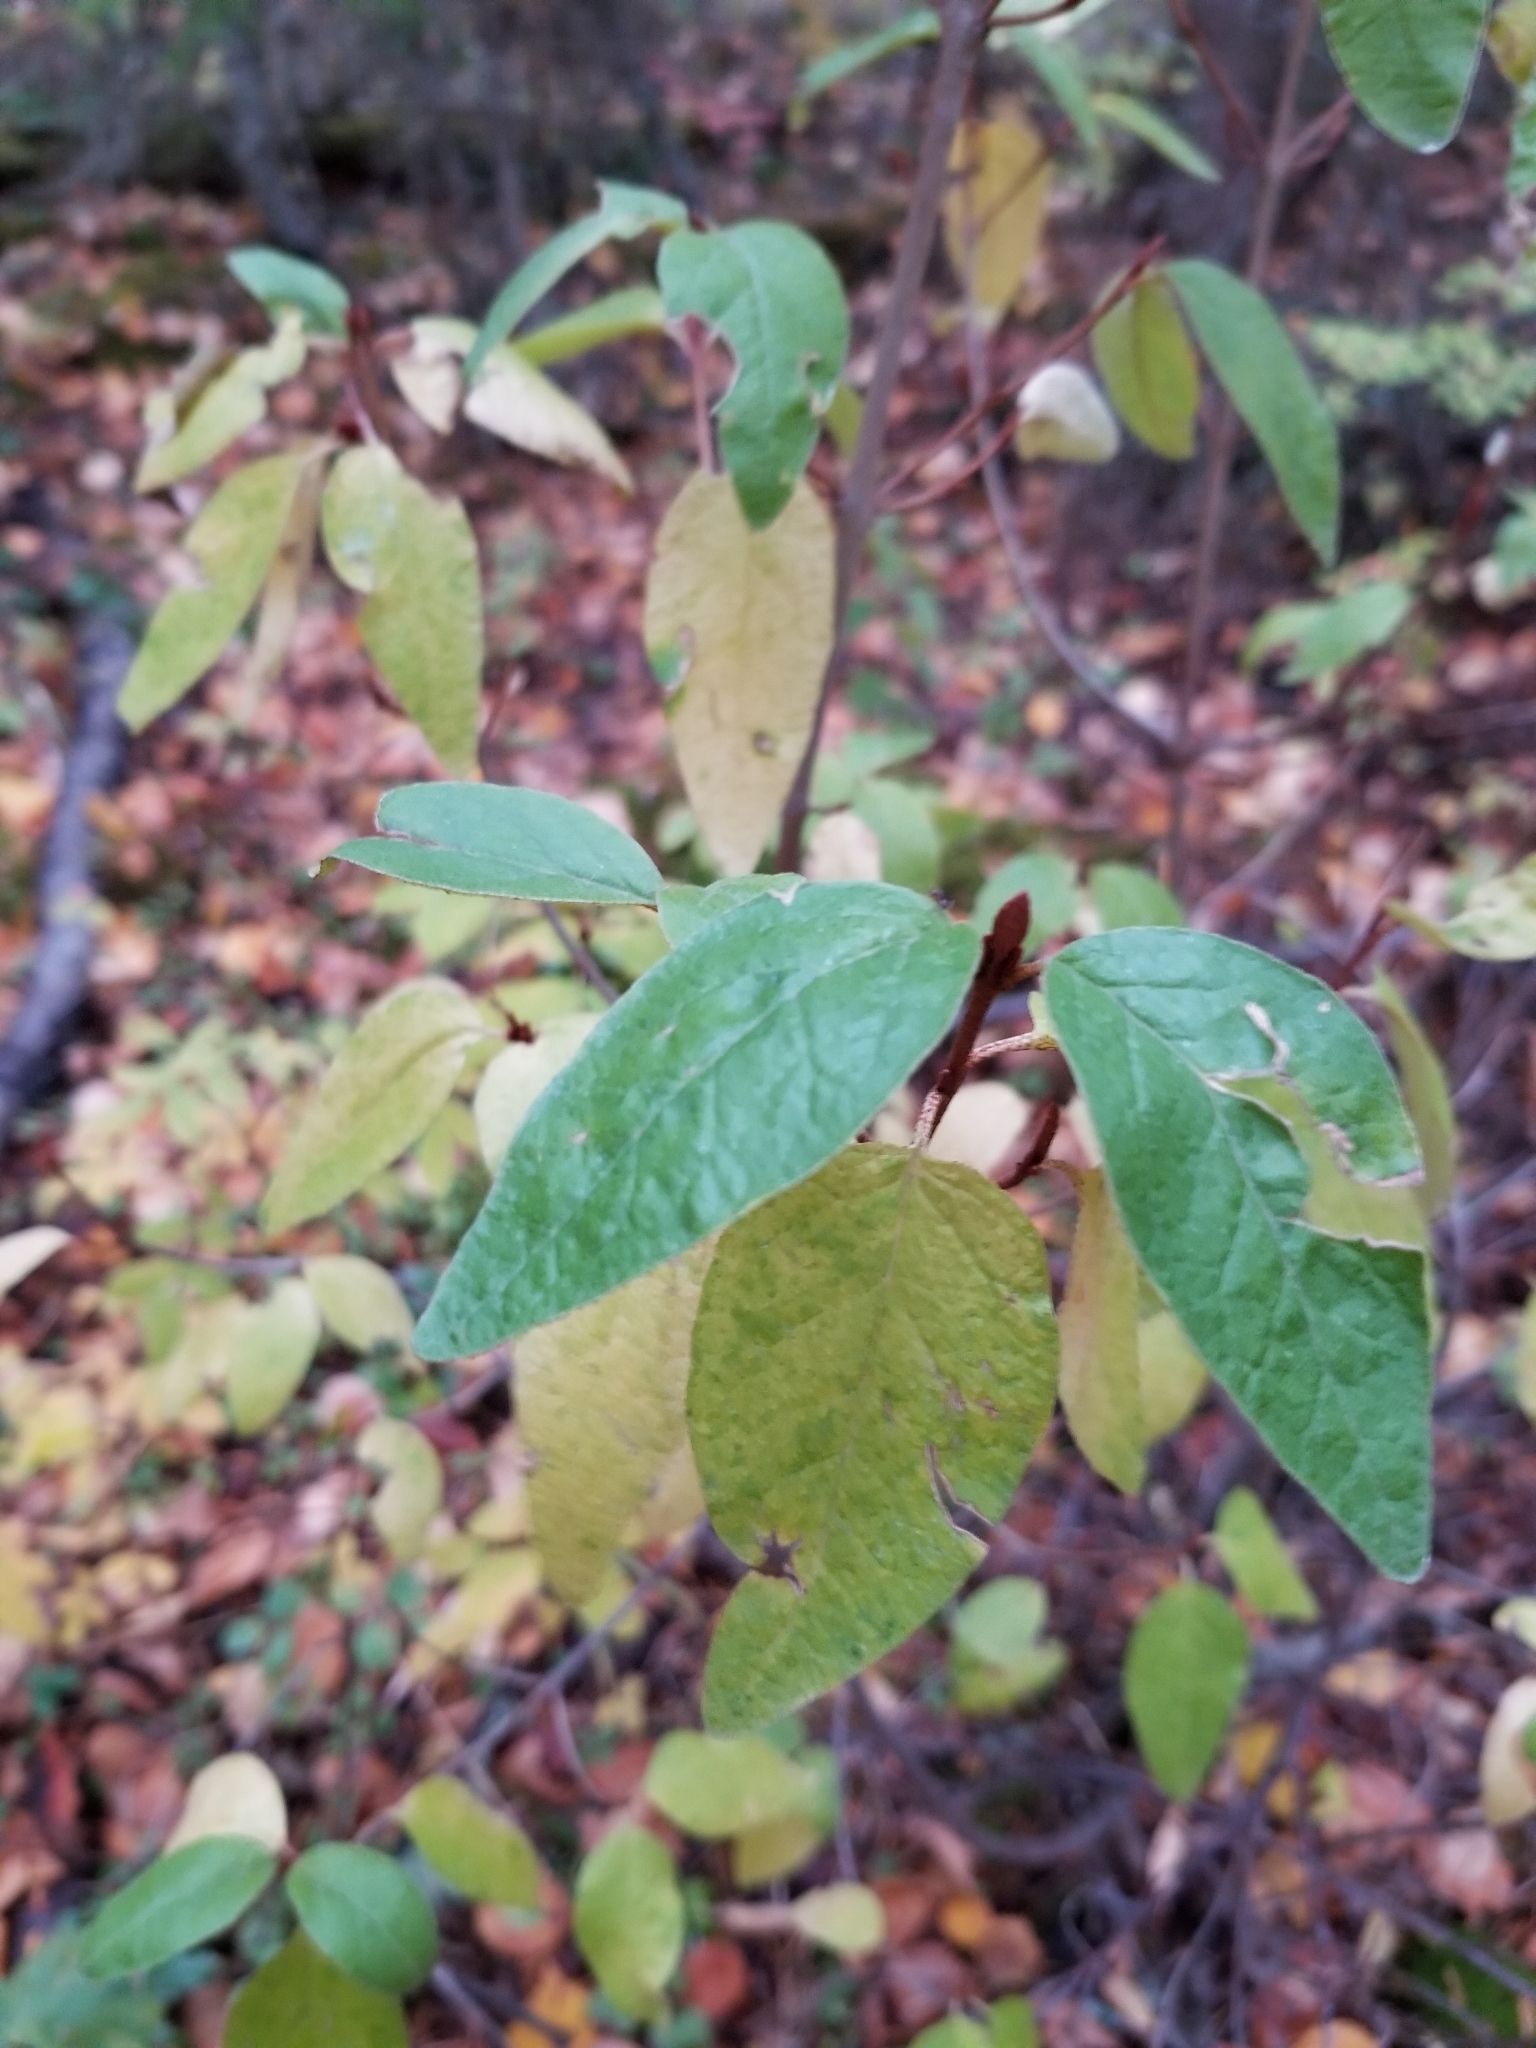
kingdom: Plantae
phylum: Tracheophyta
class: Magnoliopsida
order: Rosales
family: Elaeagnaceae
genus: Shepherdia
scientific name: Shepherdia canadensis
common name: Soapberry
